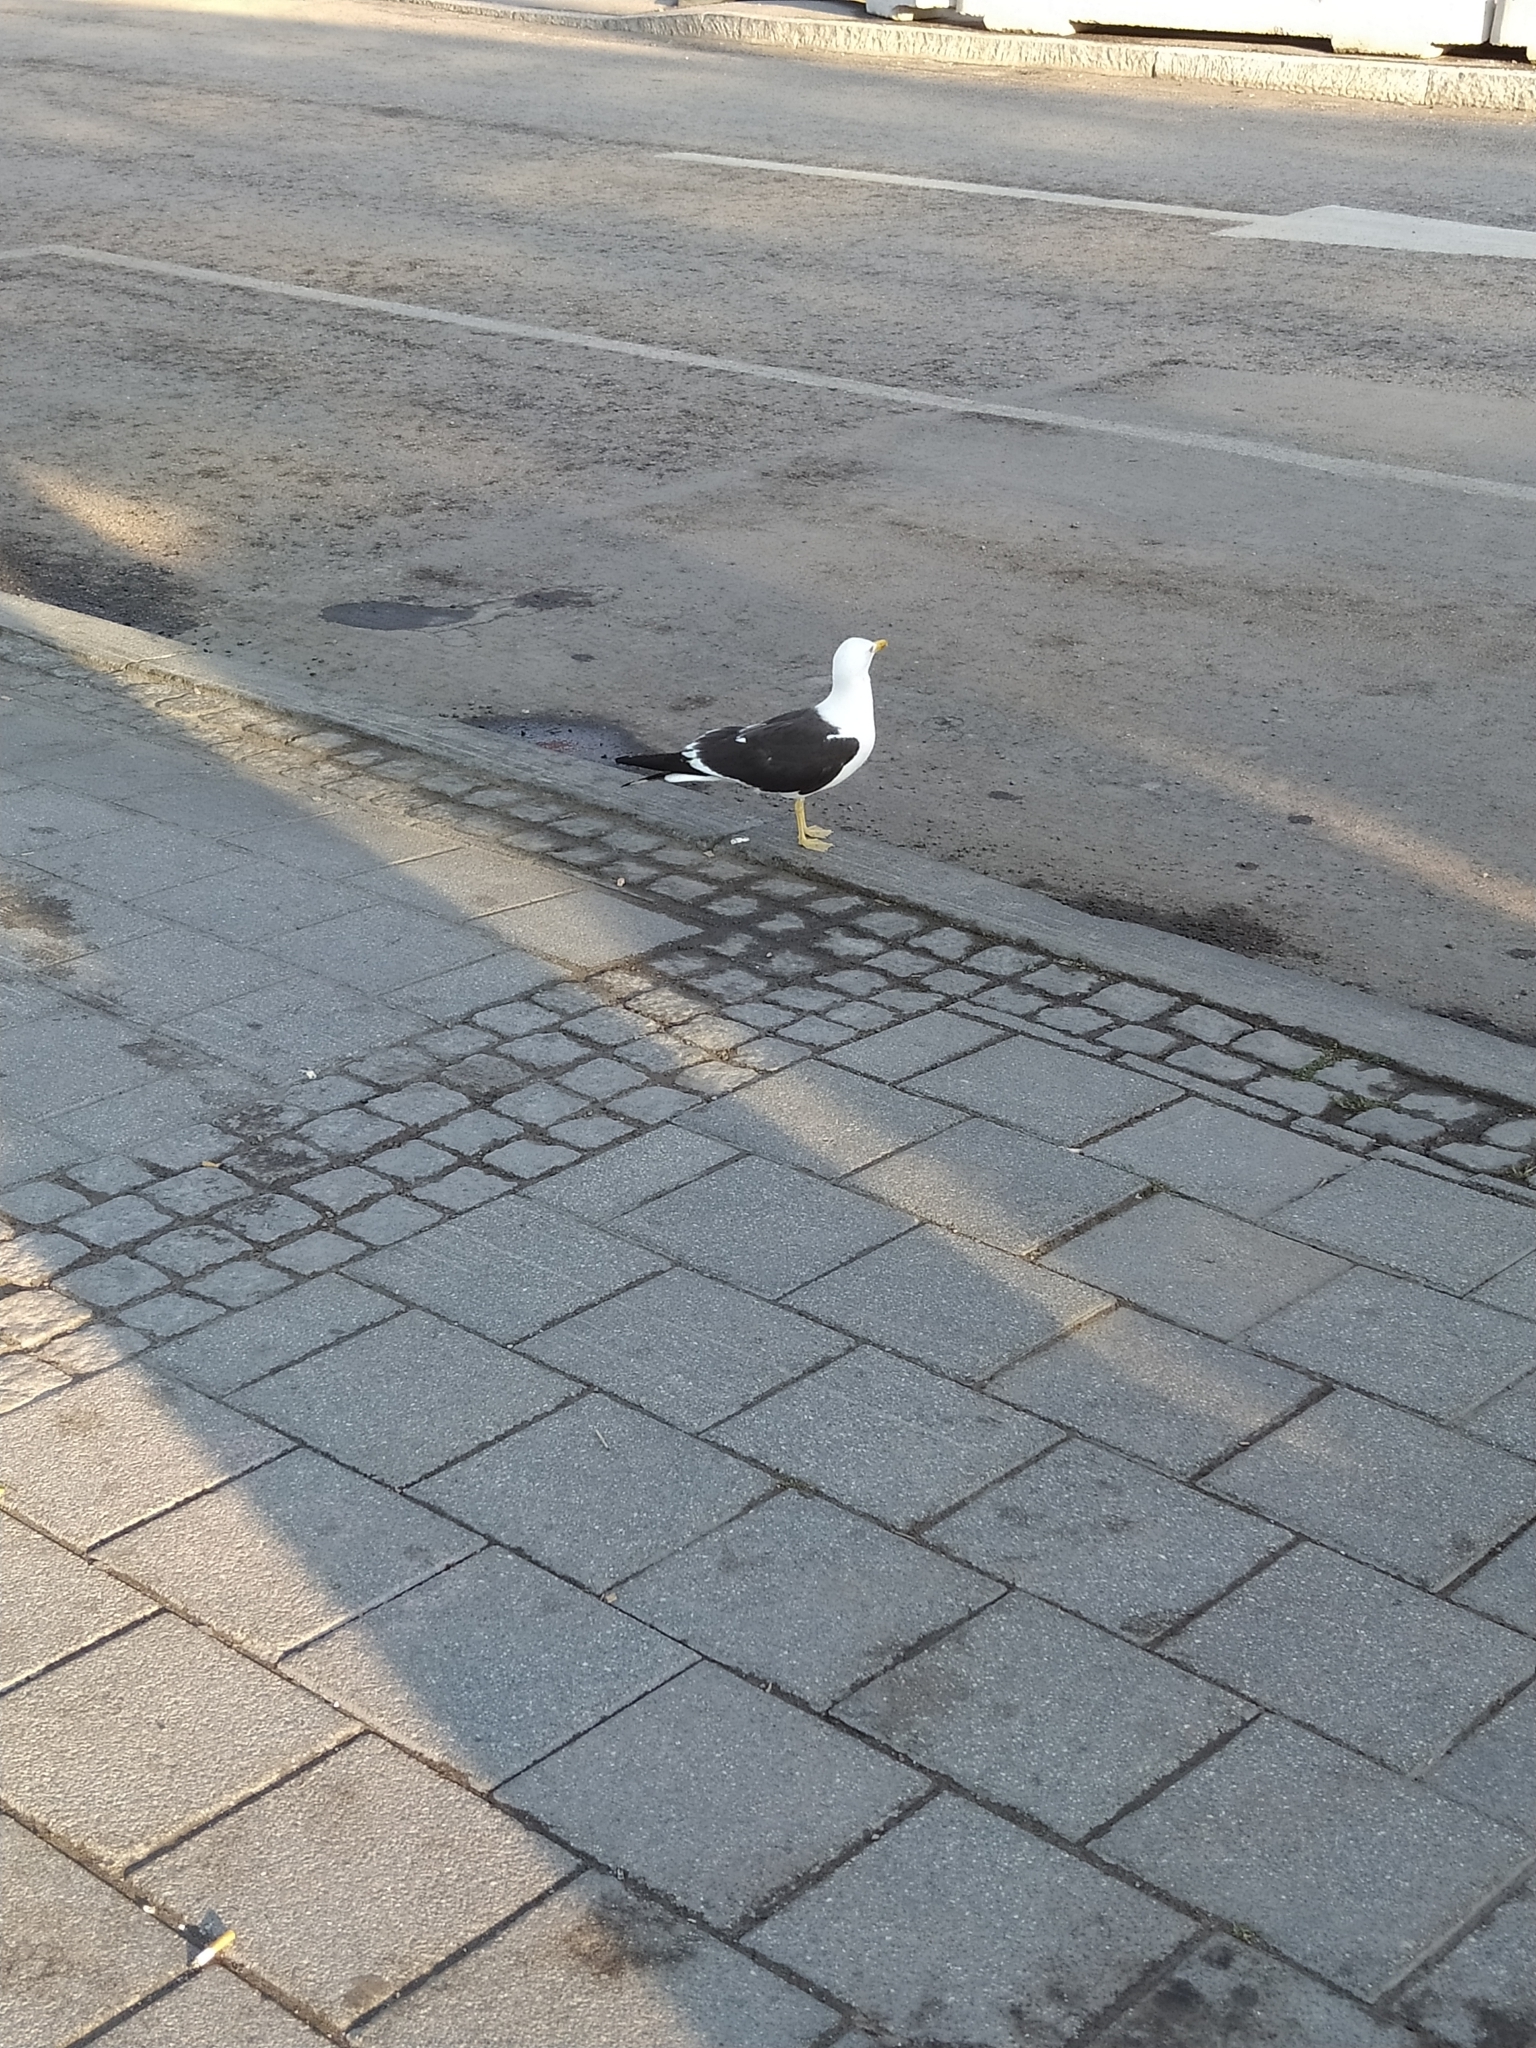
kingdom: Animalia
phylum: Chordata
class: Aves
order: Charadriiformes
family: Laridae
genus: Larus
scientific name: Larus fuscus
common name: Lesser black-backed gull
